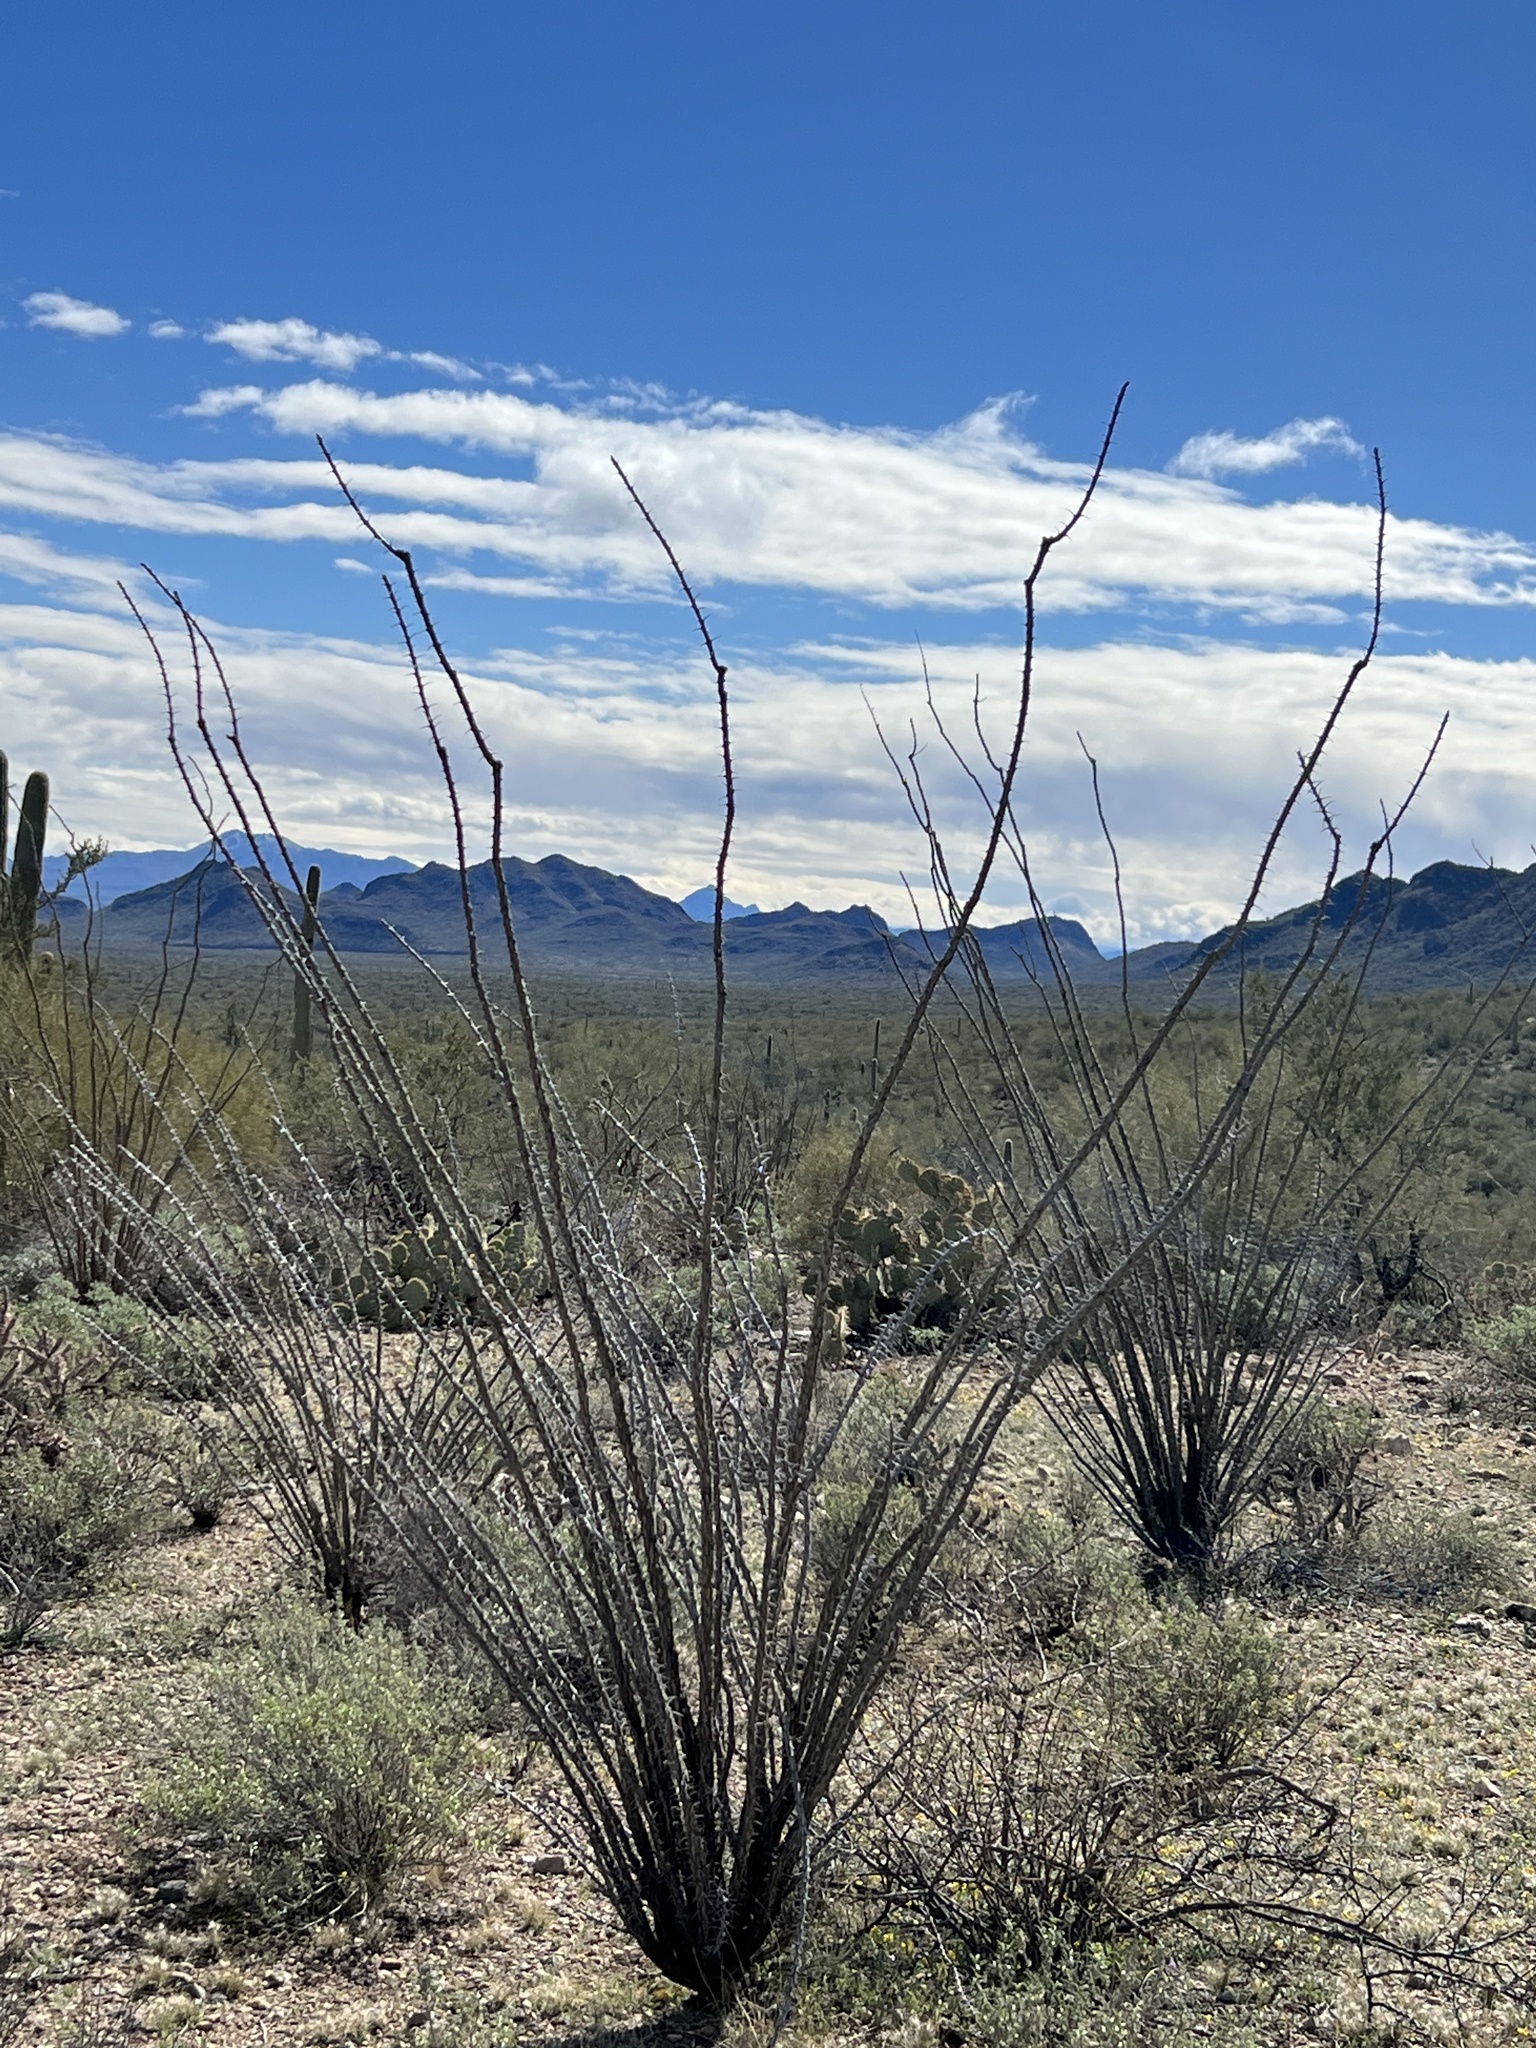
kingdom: Plantae
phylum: Tracheophyta
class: Magnoliopsida
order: Ericales
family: Fouquieriaceae
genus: Fouquieria
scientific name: Fouquieria splendens
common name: Vine-cactus
